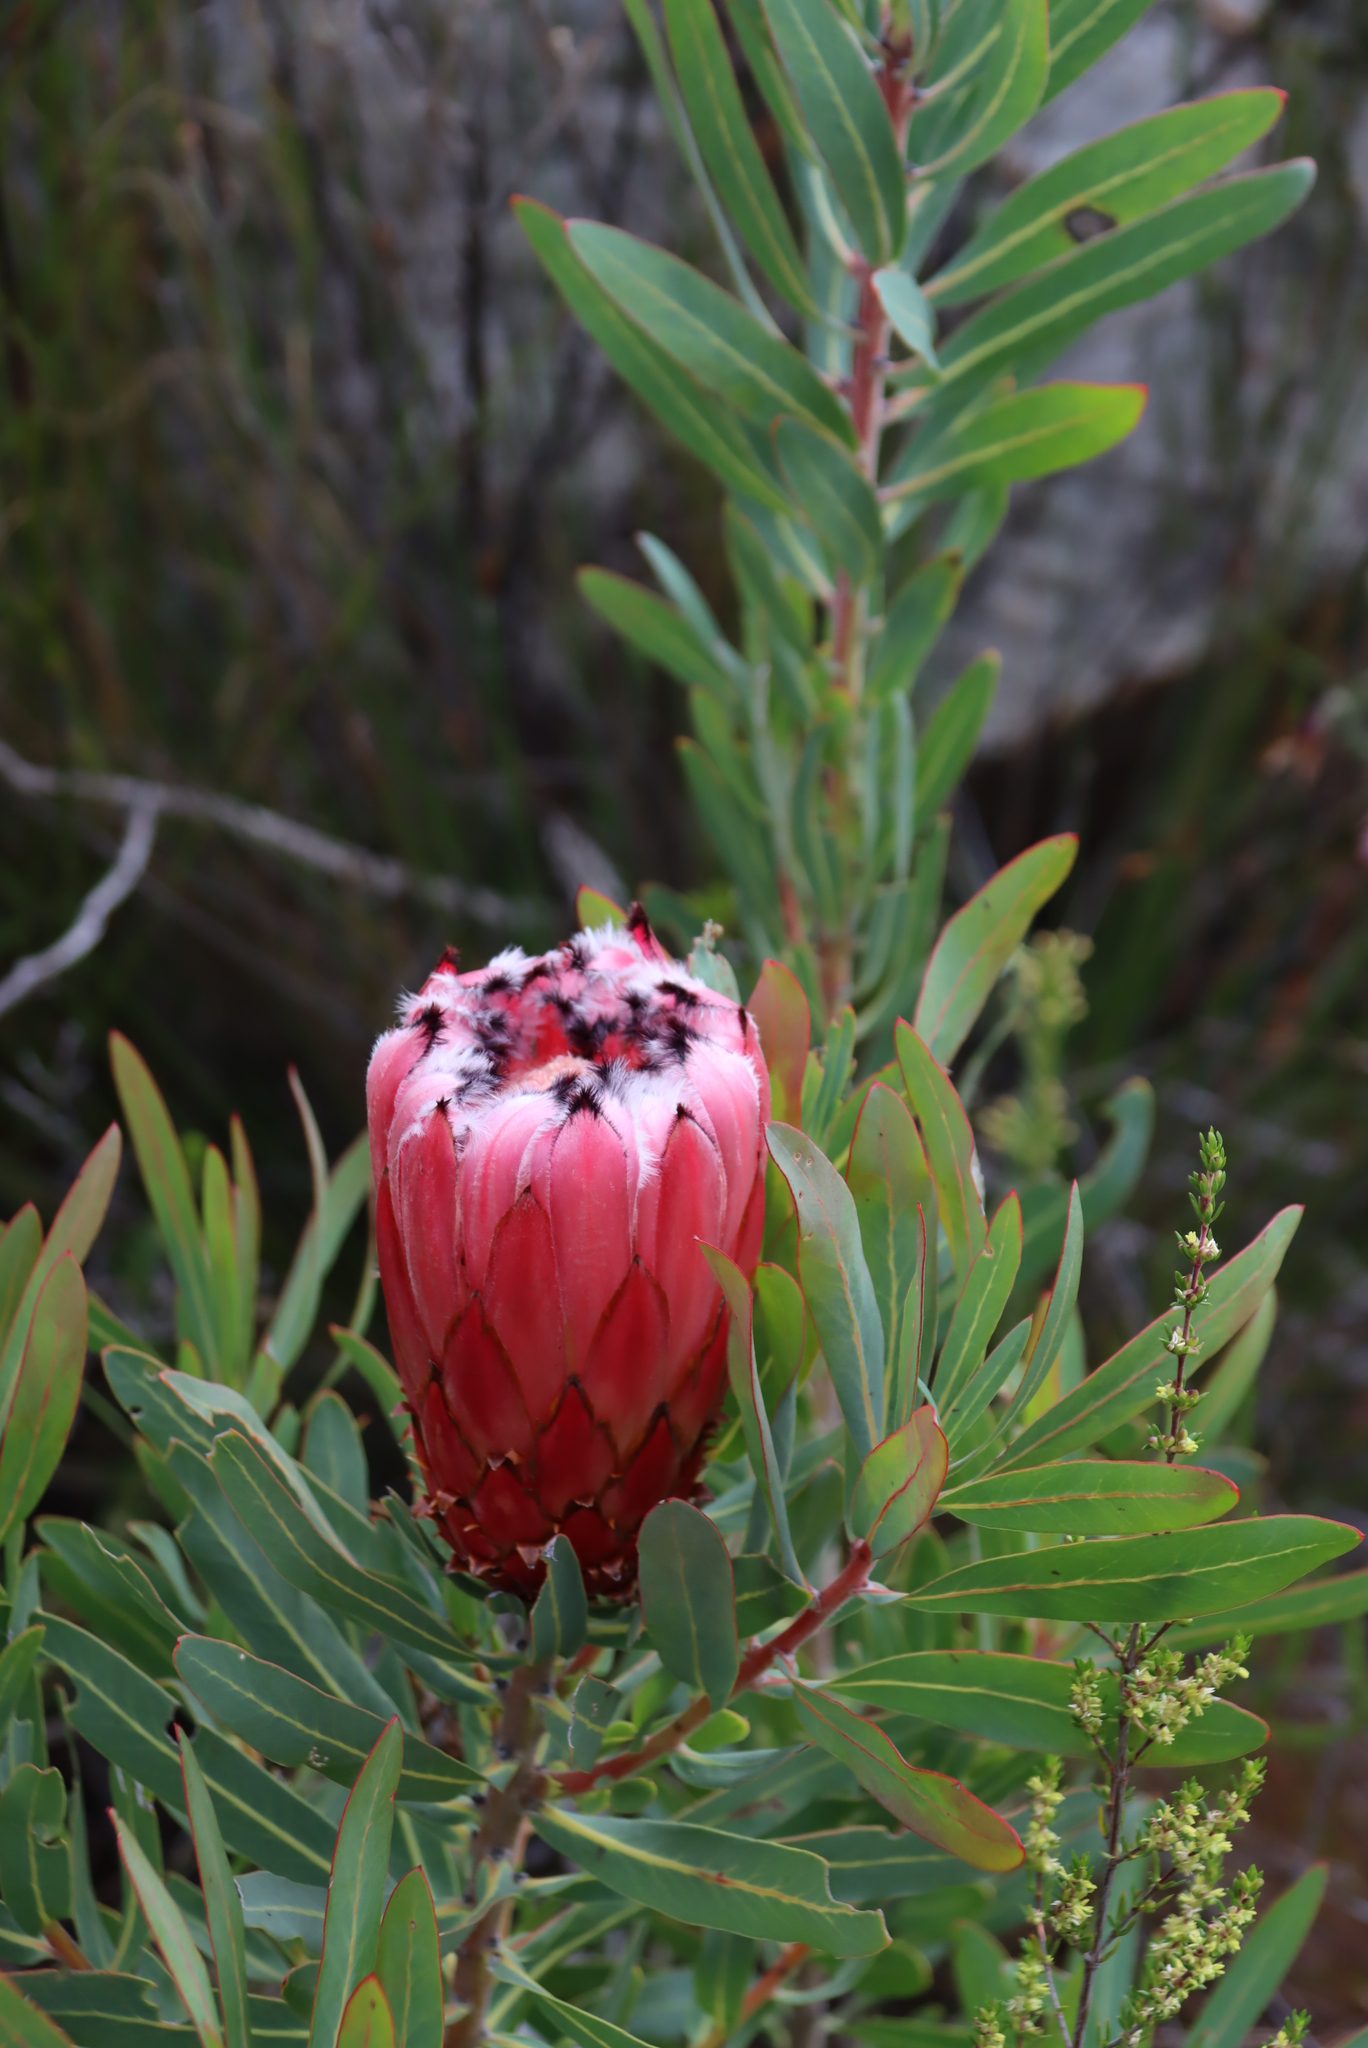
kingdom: Plantae
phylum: Tracheophyta
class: Magnoliopsida
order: Proteales
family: Proteaceae
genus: Protea
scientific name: Protea neriifolia
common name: Blue sugarbush
